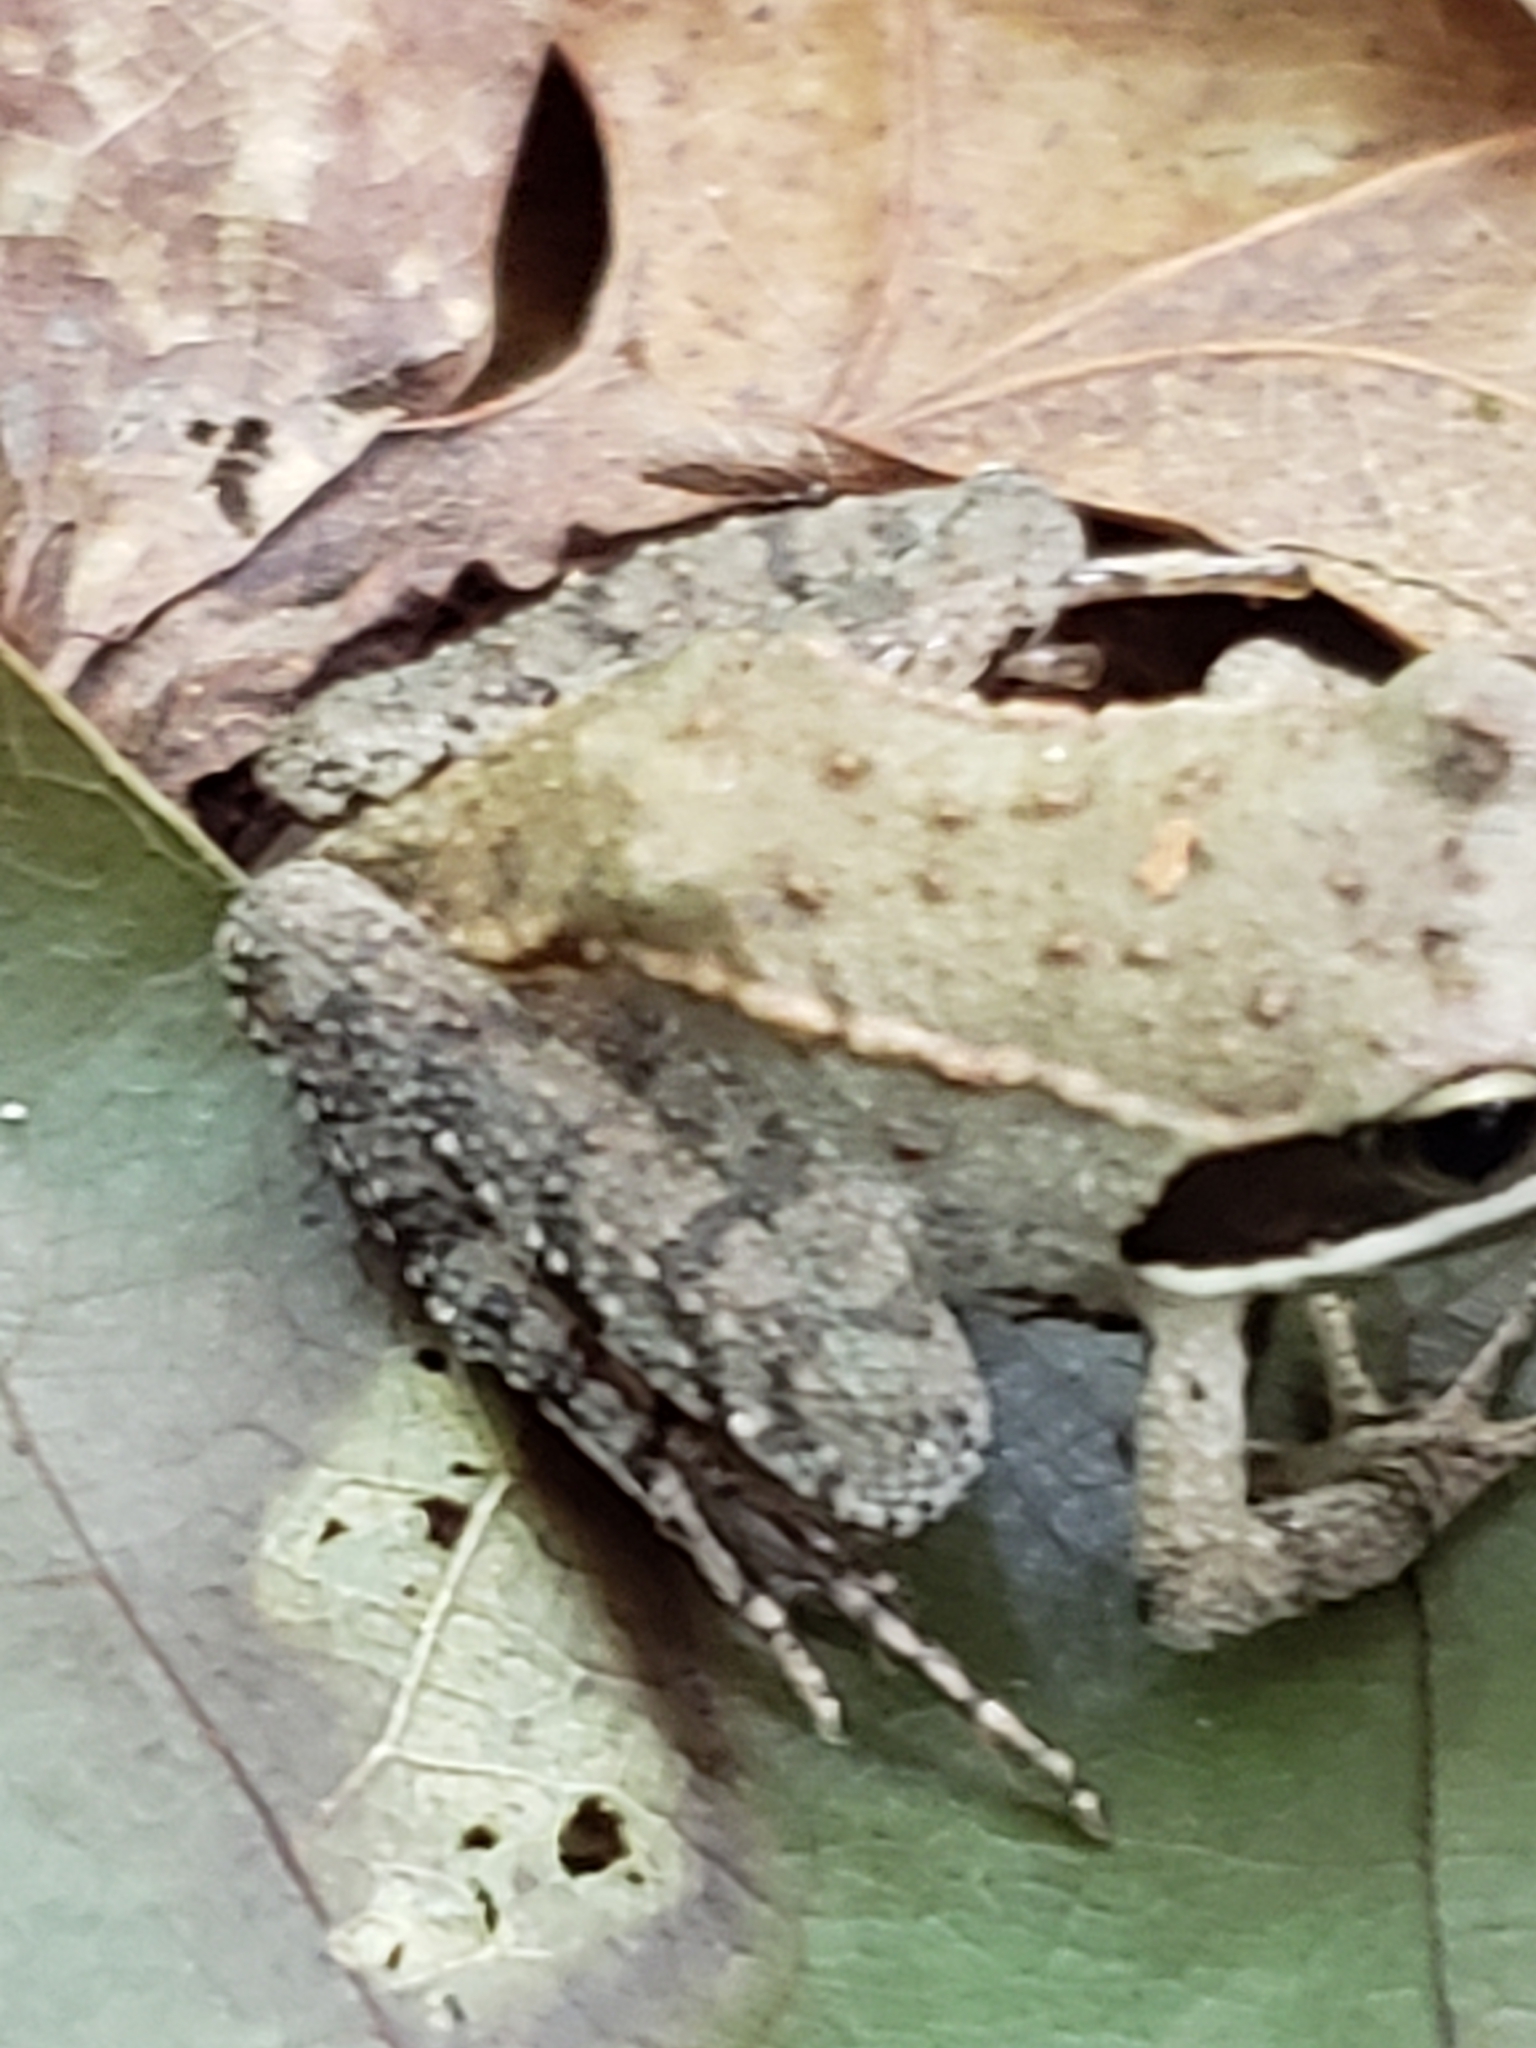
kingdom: Animalia
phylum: Chordata
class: Amphibia
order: Anura
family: Ranidae
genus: Lithobates
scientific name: Lithobates sylvaticus
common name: Wood frog
